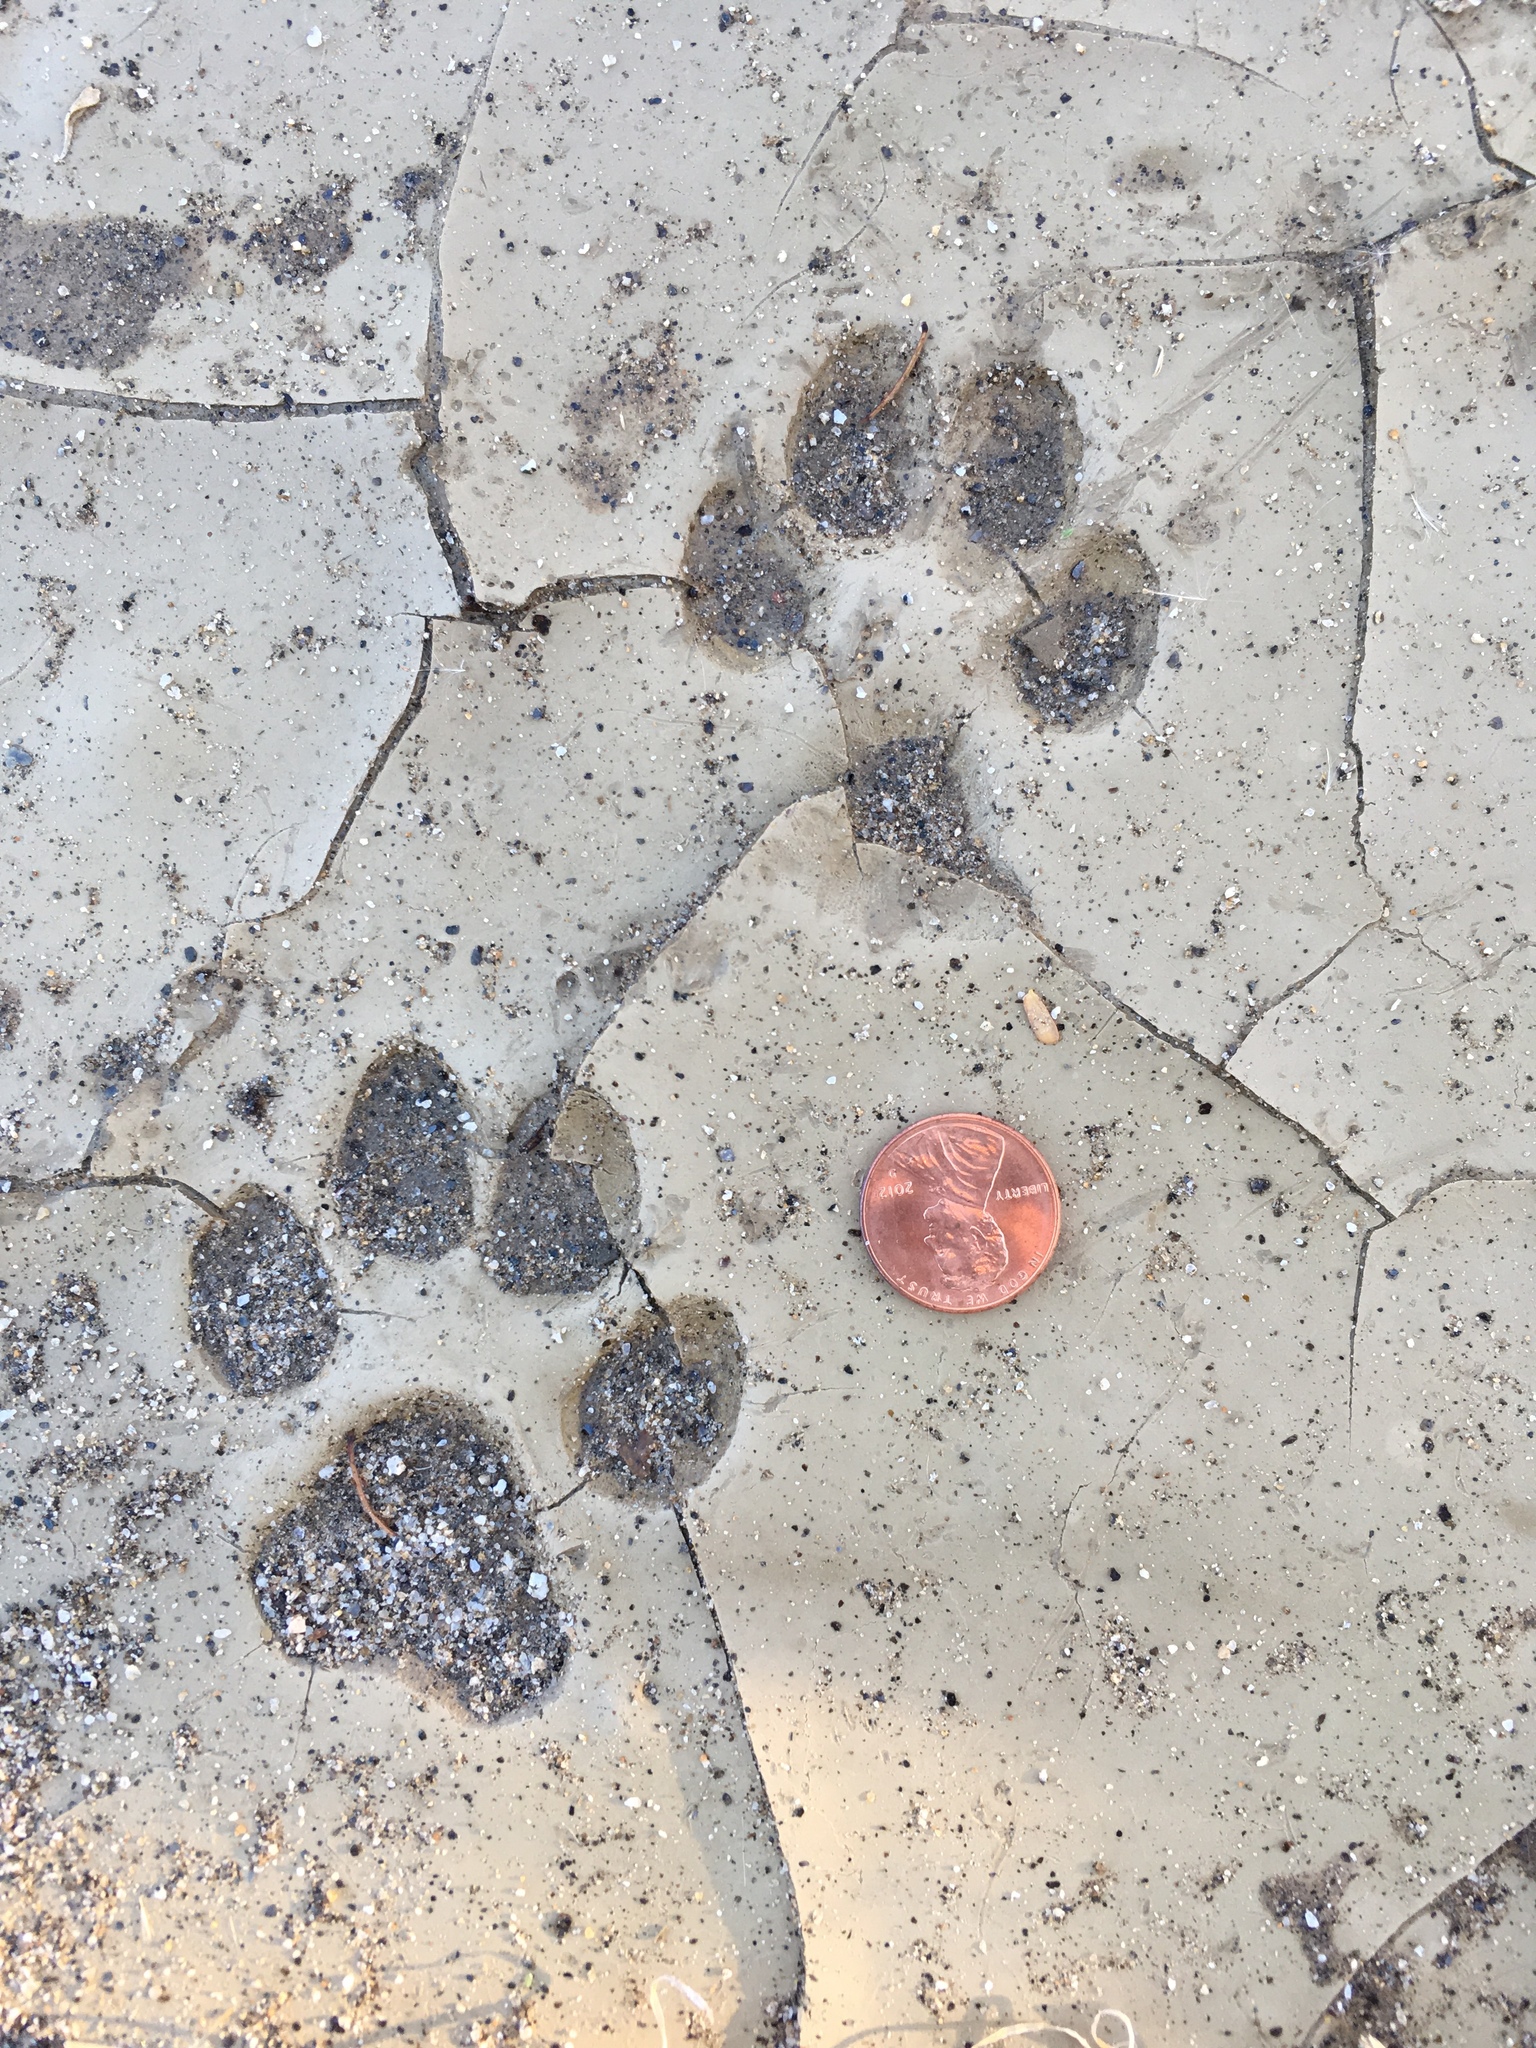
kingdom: Animalia
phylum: Chordata
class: Mammalia
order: Carnivora
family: Canidae
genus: Canis
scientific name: Canis latrans
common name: Coyote
